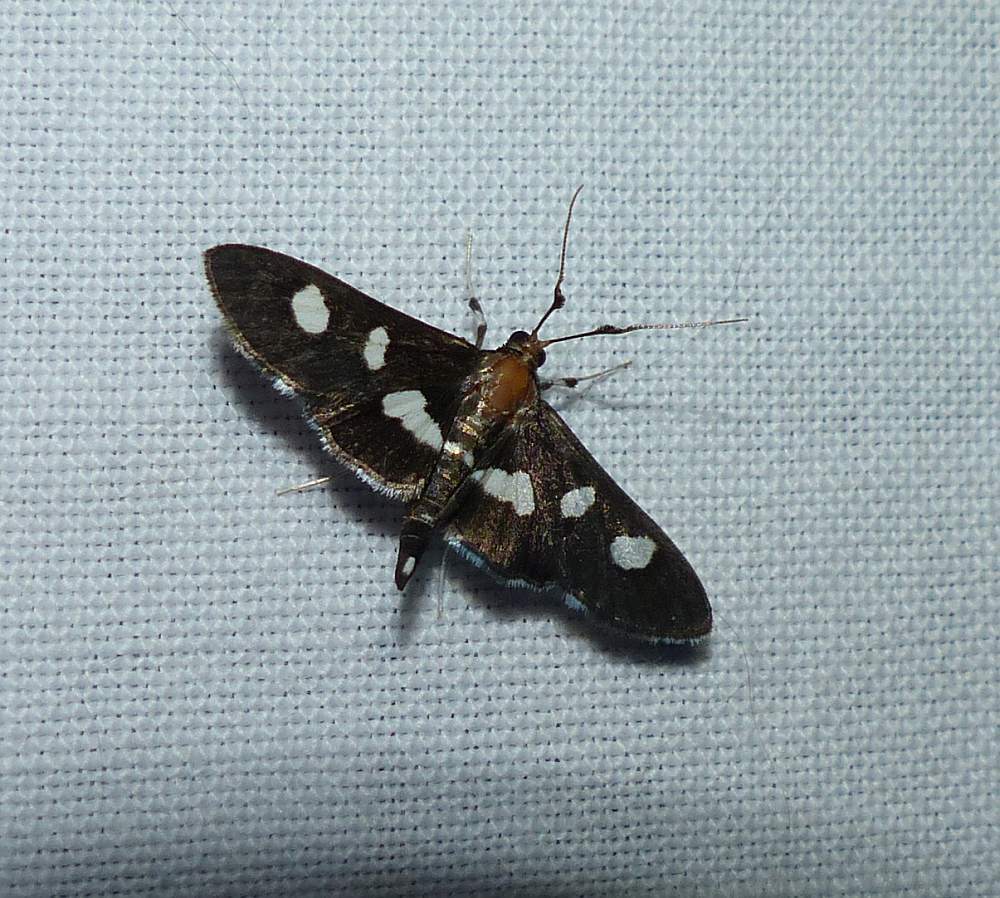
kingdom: Animalia
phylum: Arthropoda
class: Insecta
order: Lepidoptera
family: Crambidae
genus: Desmia
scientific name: Desmia
